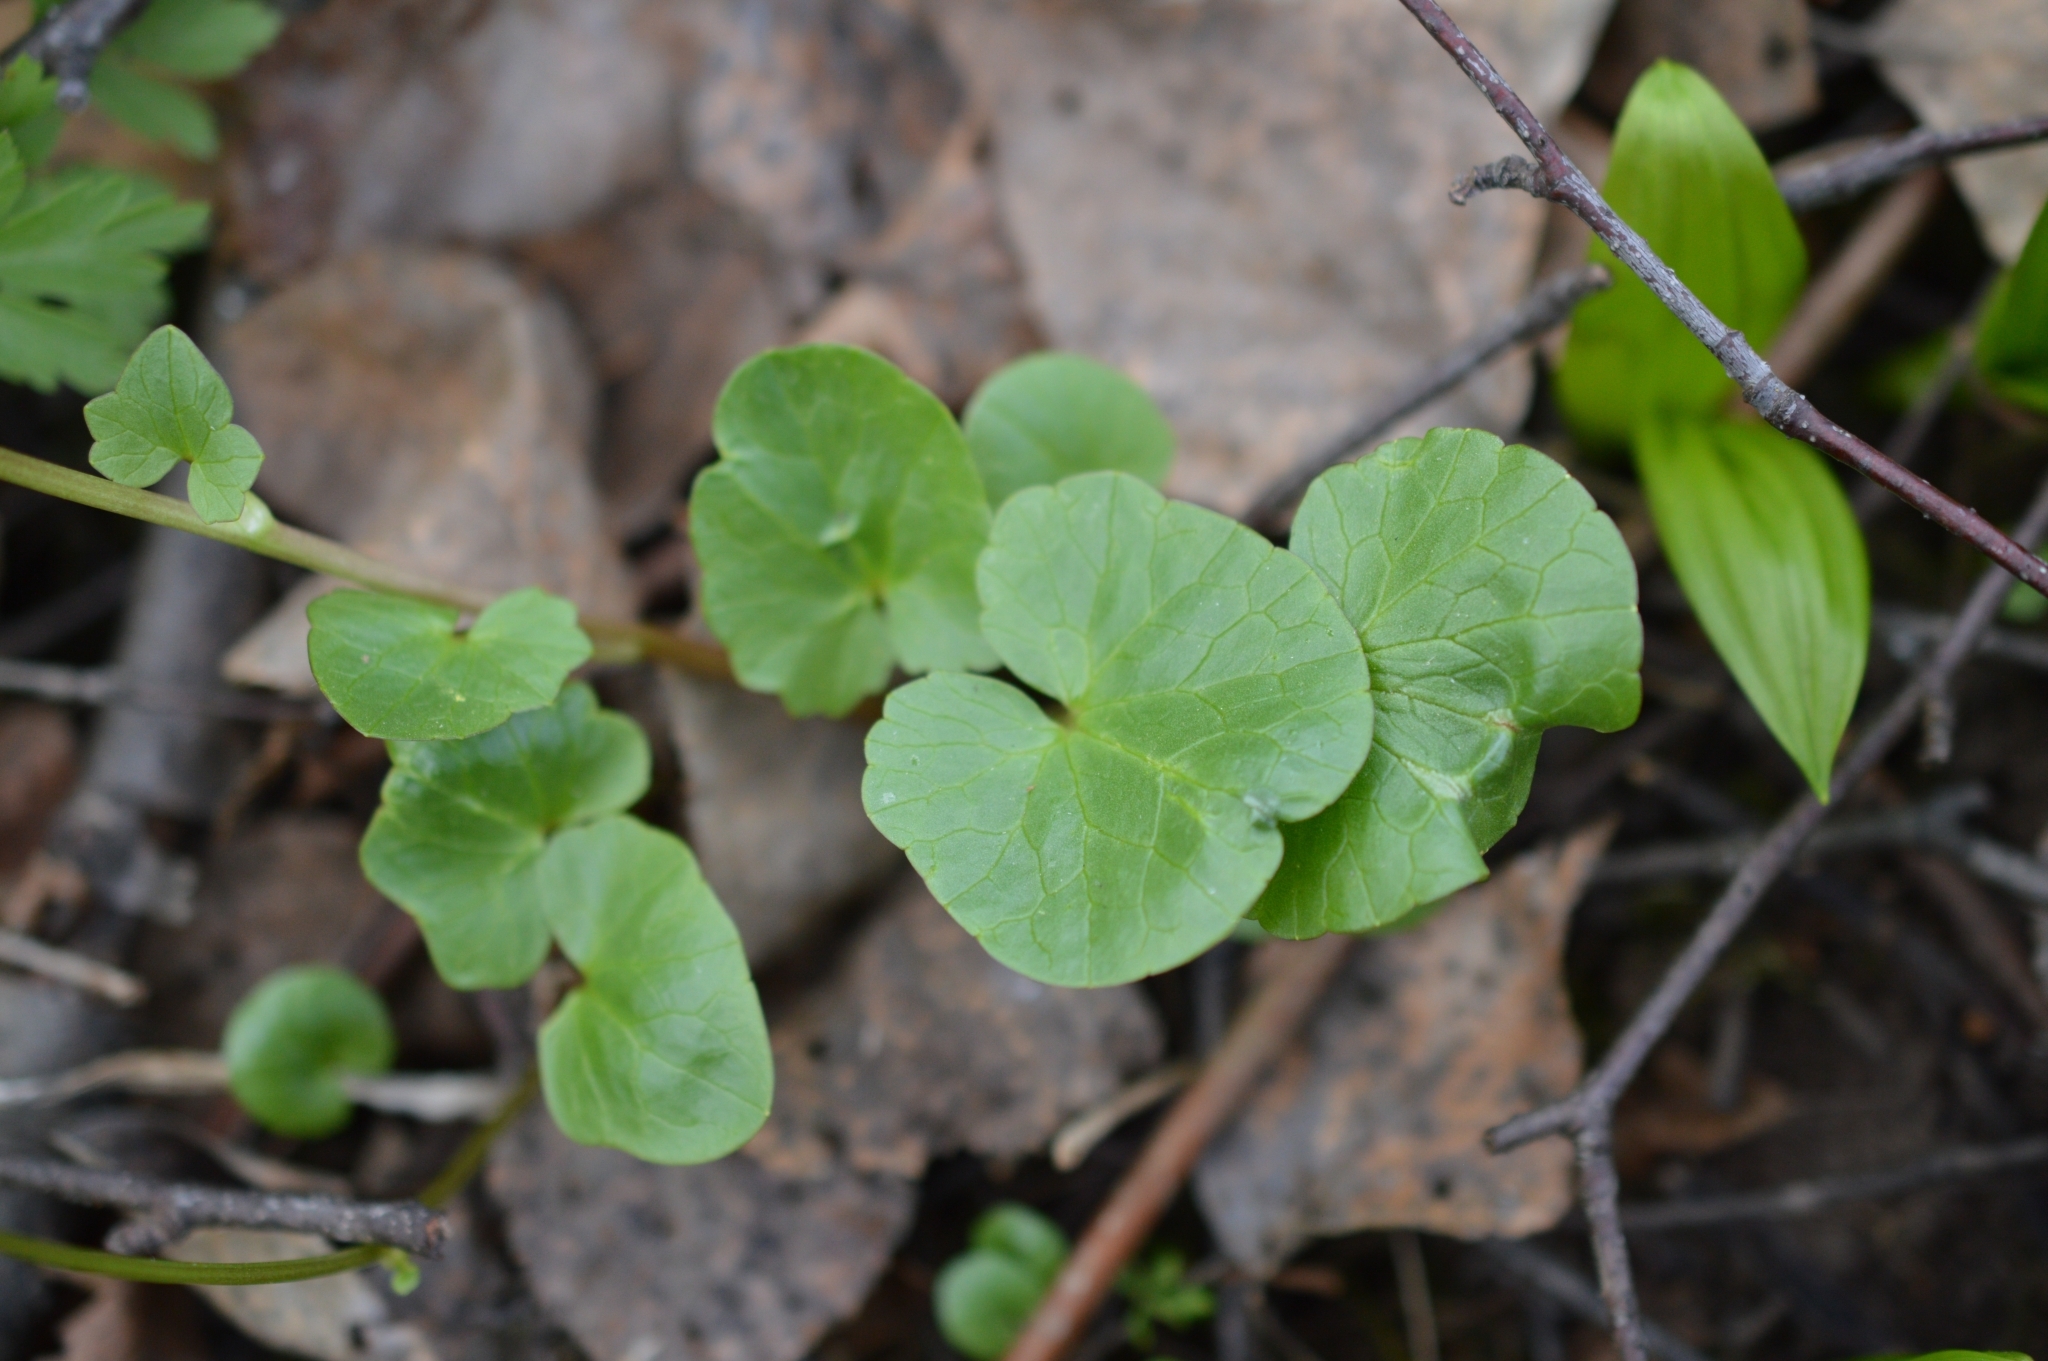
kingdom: Plantae
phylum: Tracheophyta
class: Magnoliopsida
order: Ranunculales
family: Ranunculaceae
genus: Ficaria
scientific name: Ficaria verna
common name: Lesser celandine
